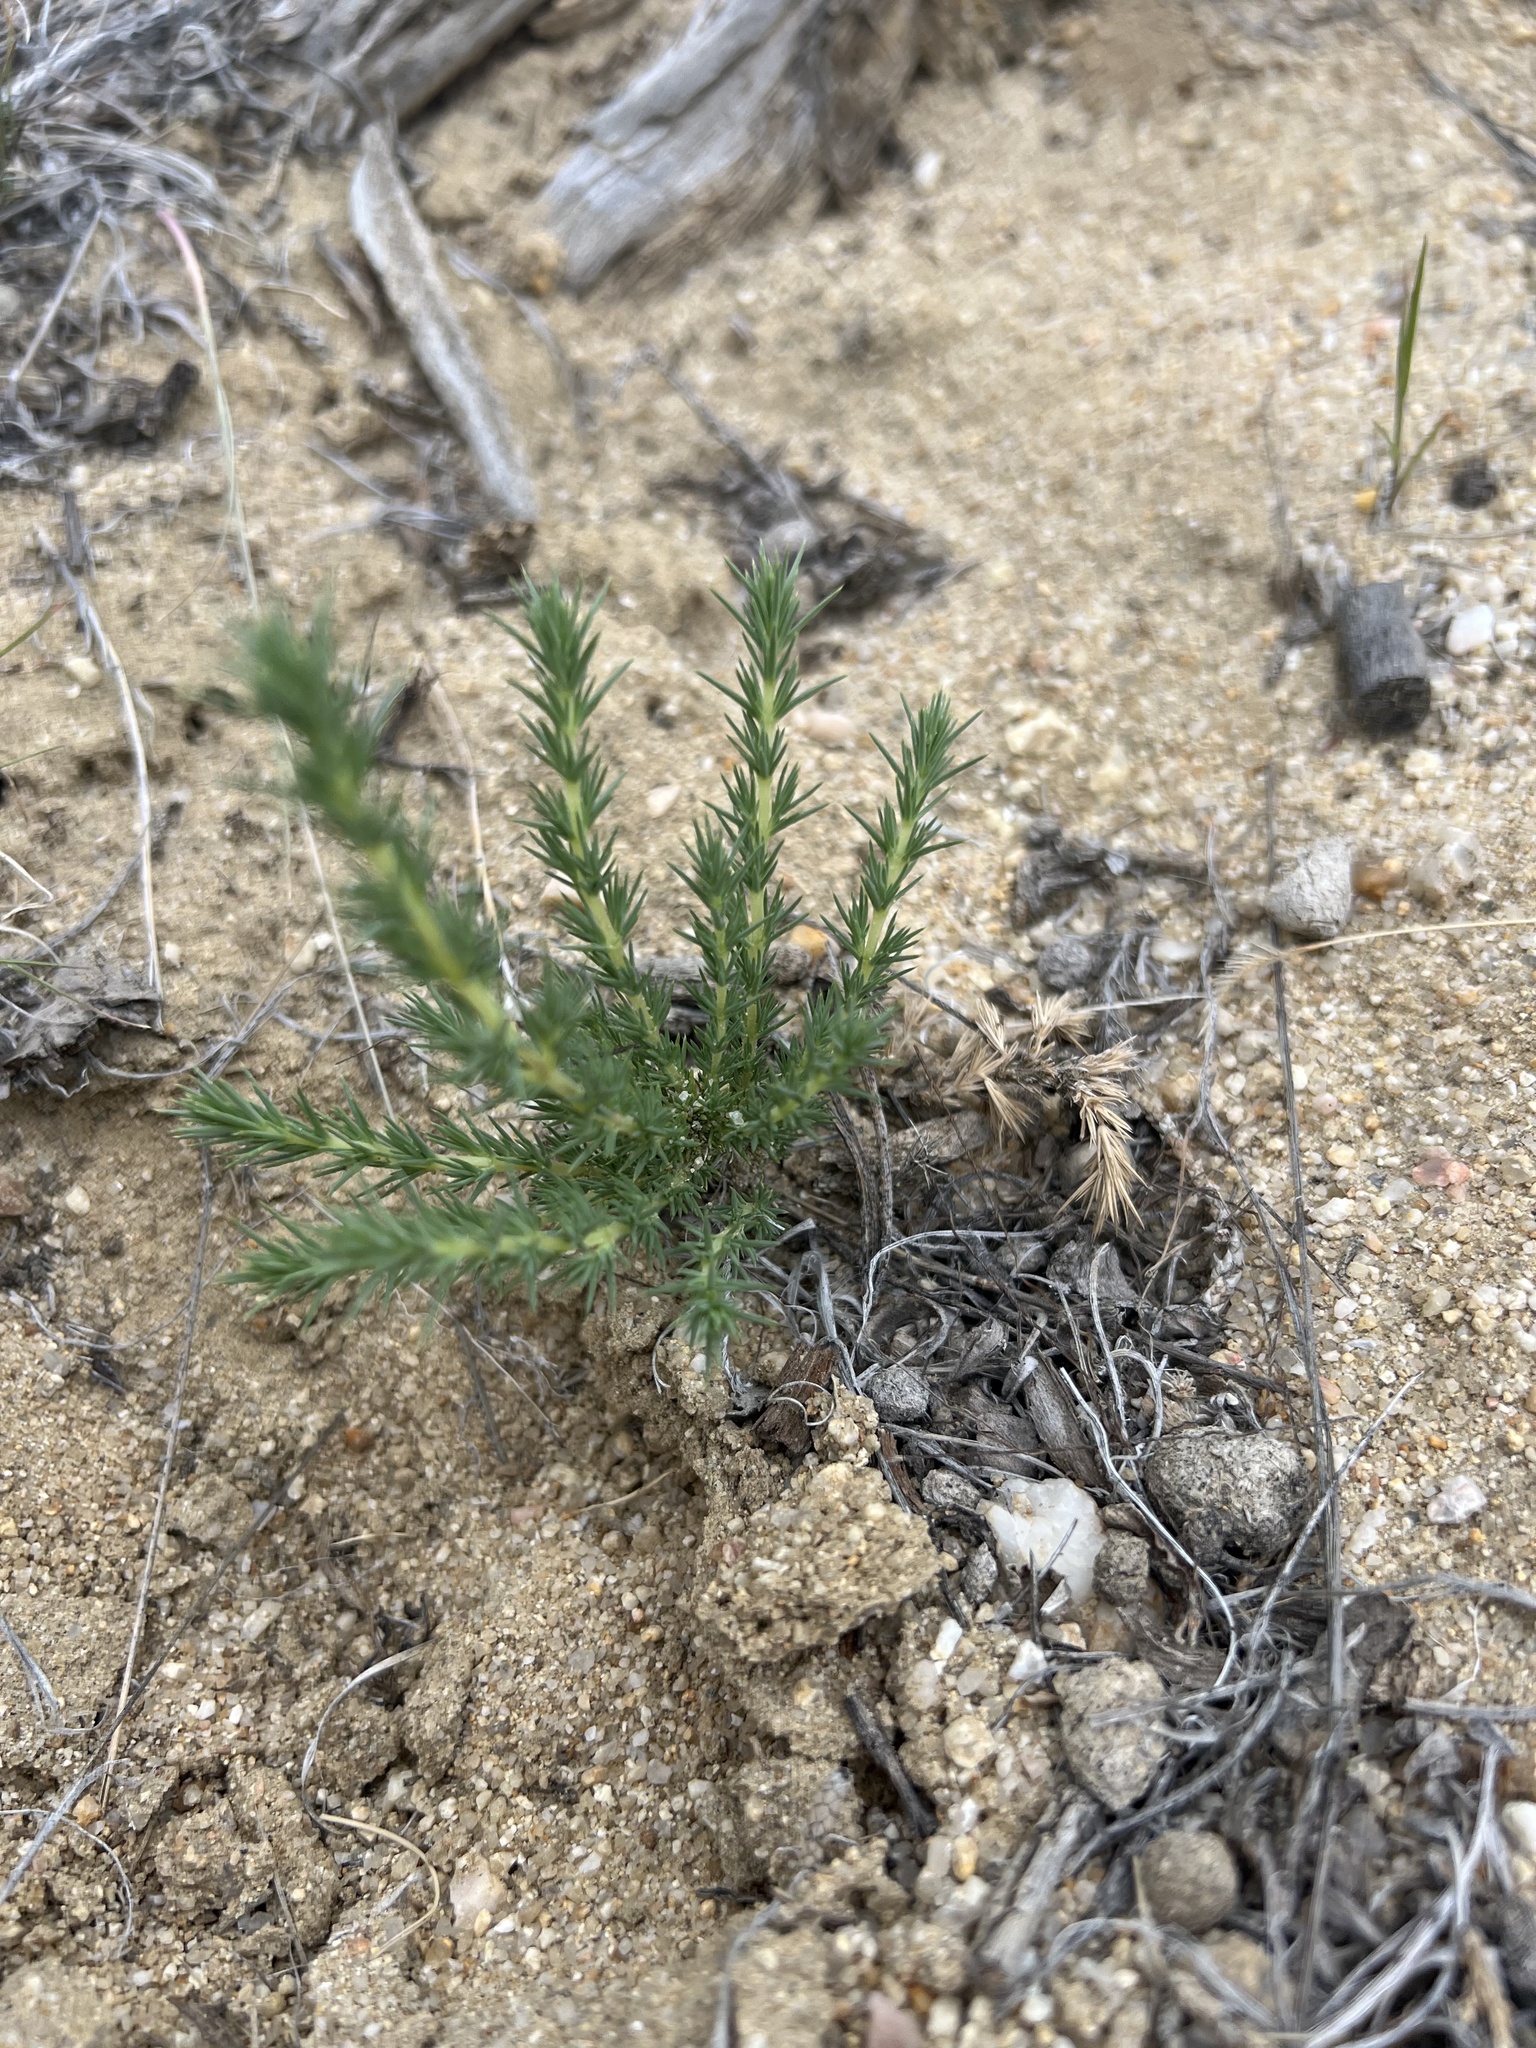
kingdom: Plantae
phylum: Tracheophyta
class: Magnoliopsida
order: Ericales
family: Polemoniaceae
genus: Linanthus
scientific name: Linanthus pungens
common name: Granite prickly phlox
